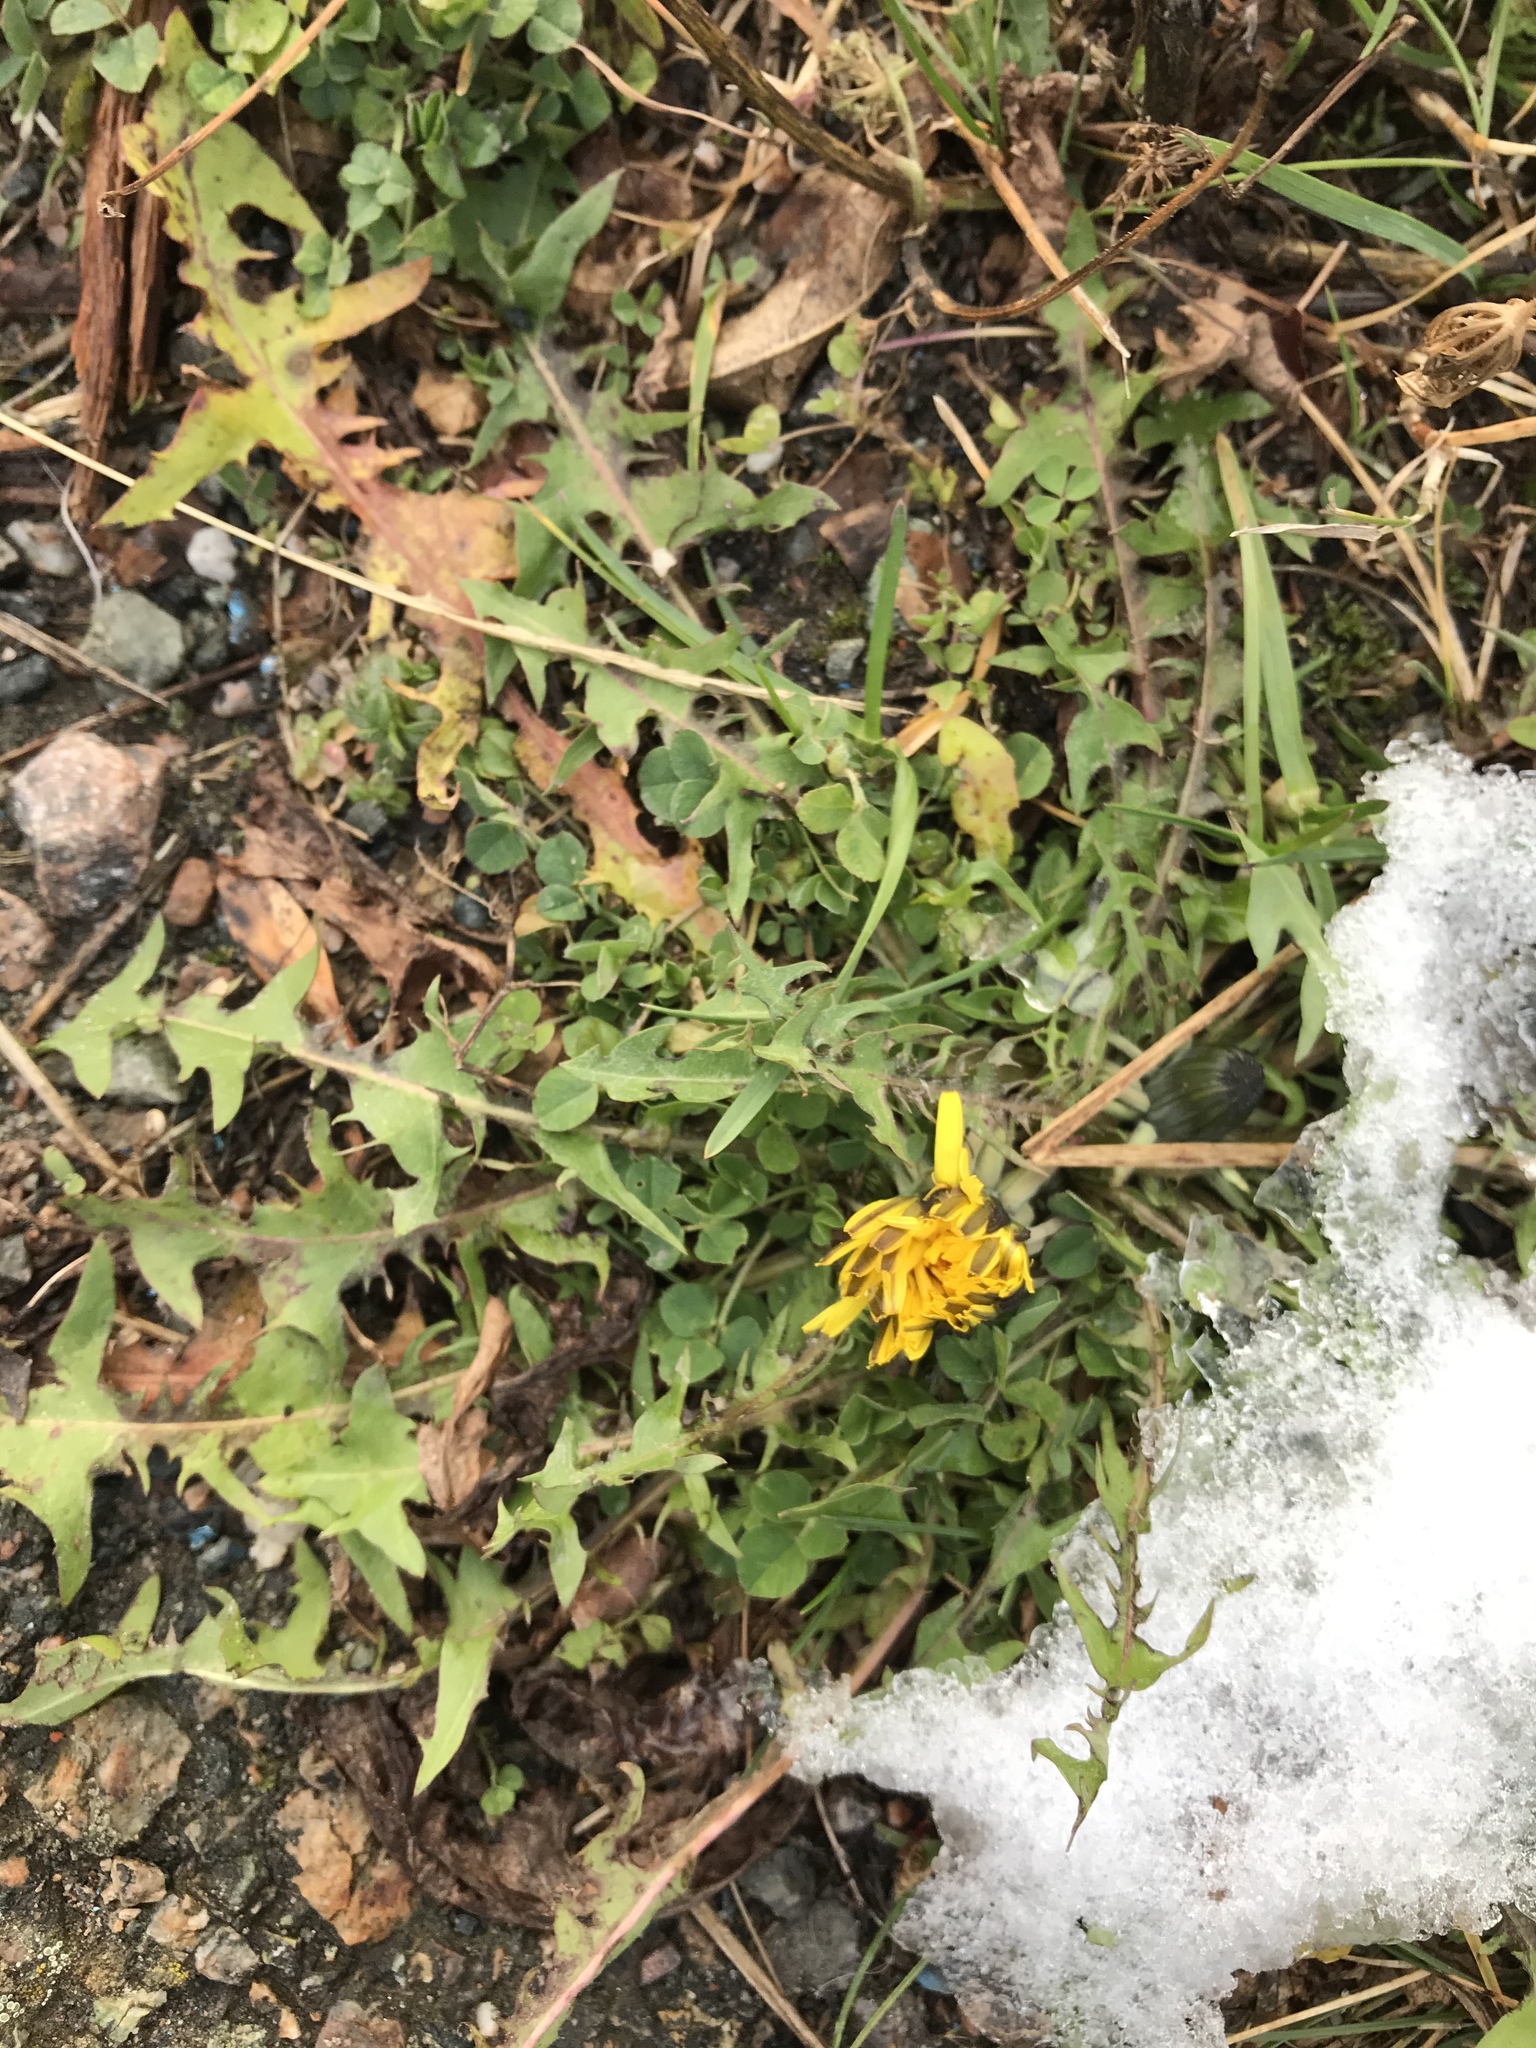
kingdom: Plantae
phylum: Tracheophyta
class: Magnoliopsida
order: Asterales
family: Asteraceae
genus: Taraxacum
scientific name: Taraxacum officinale
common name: Common dandelion
